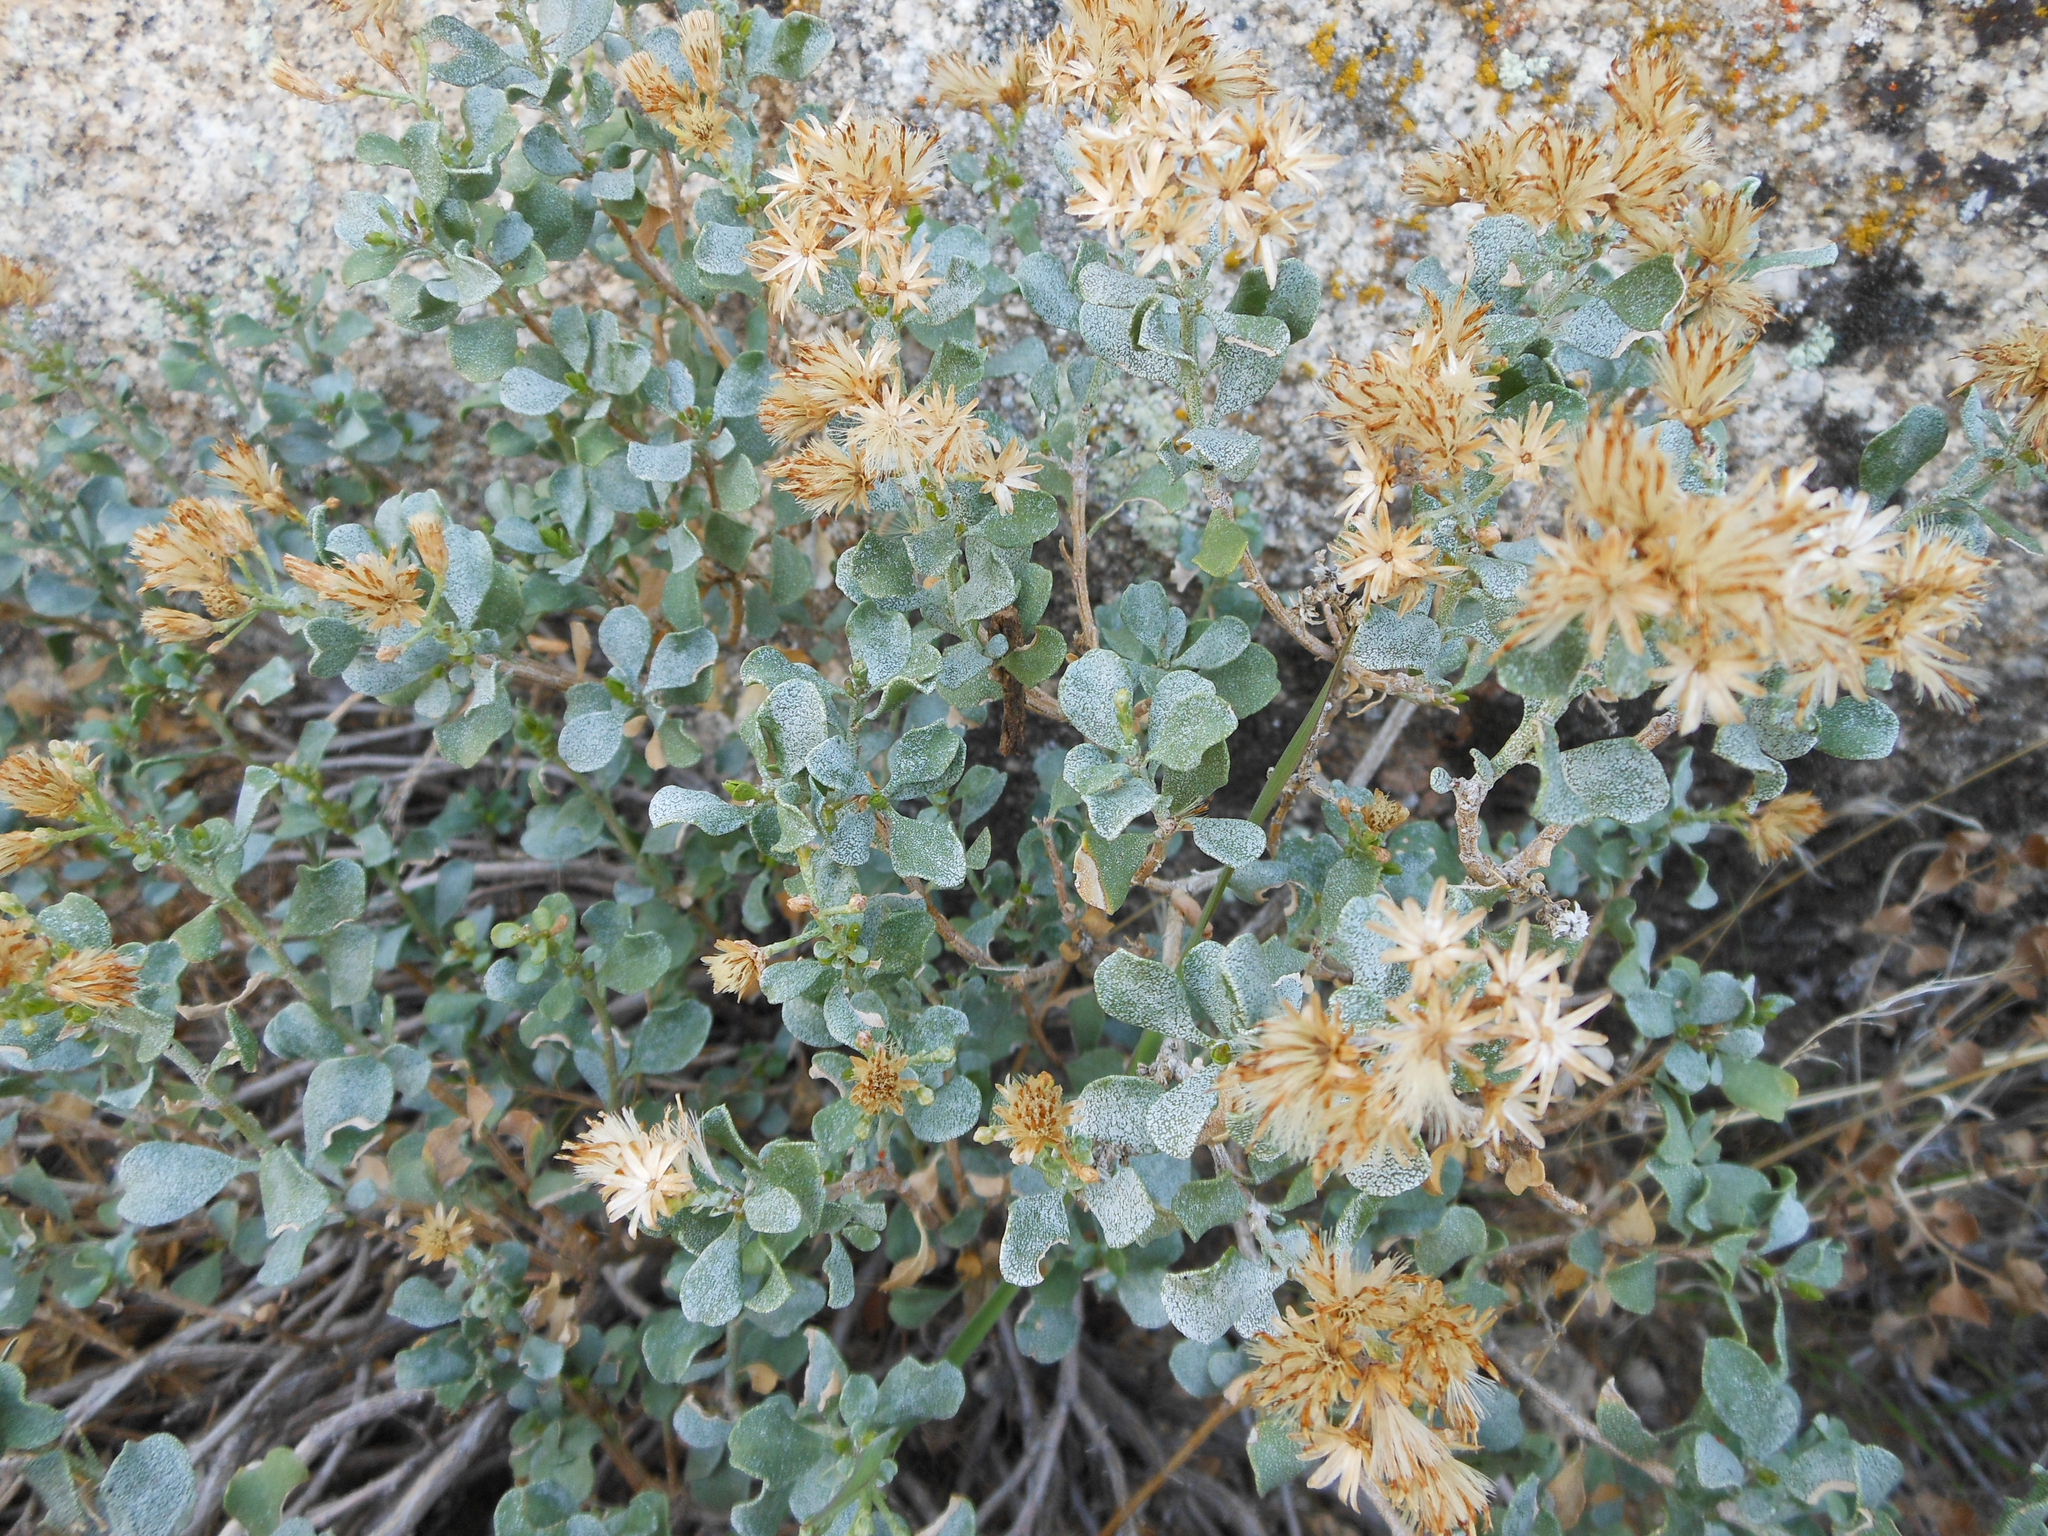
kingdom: Plantae
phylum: Tracheophyta
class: Magnoliopsida
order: Asterales
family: Asteraceae
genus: Ericameria
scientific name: Ericameria cuneata
